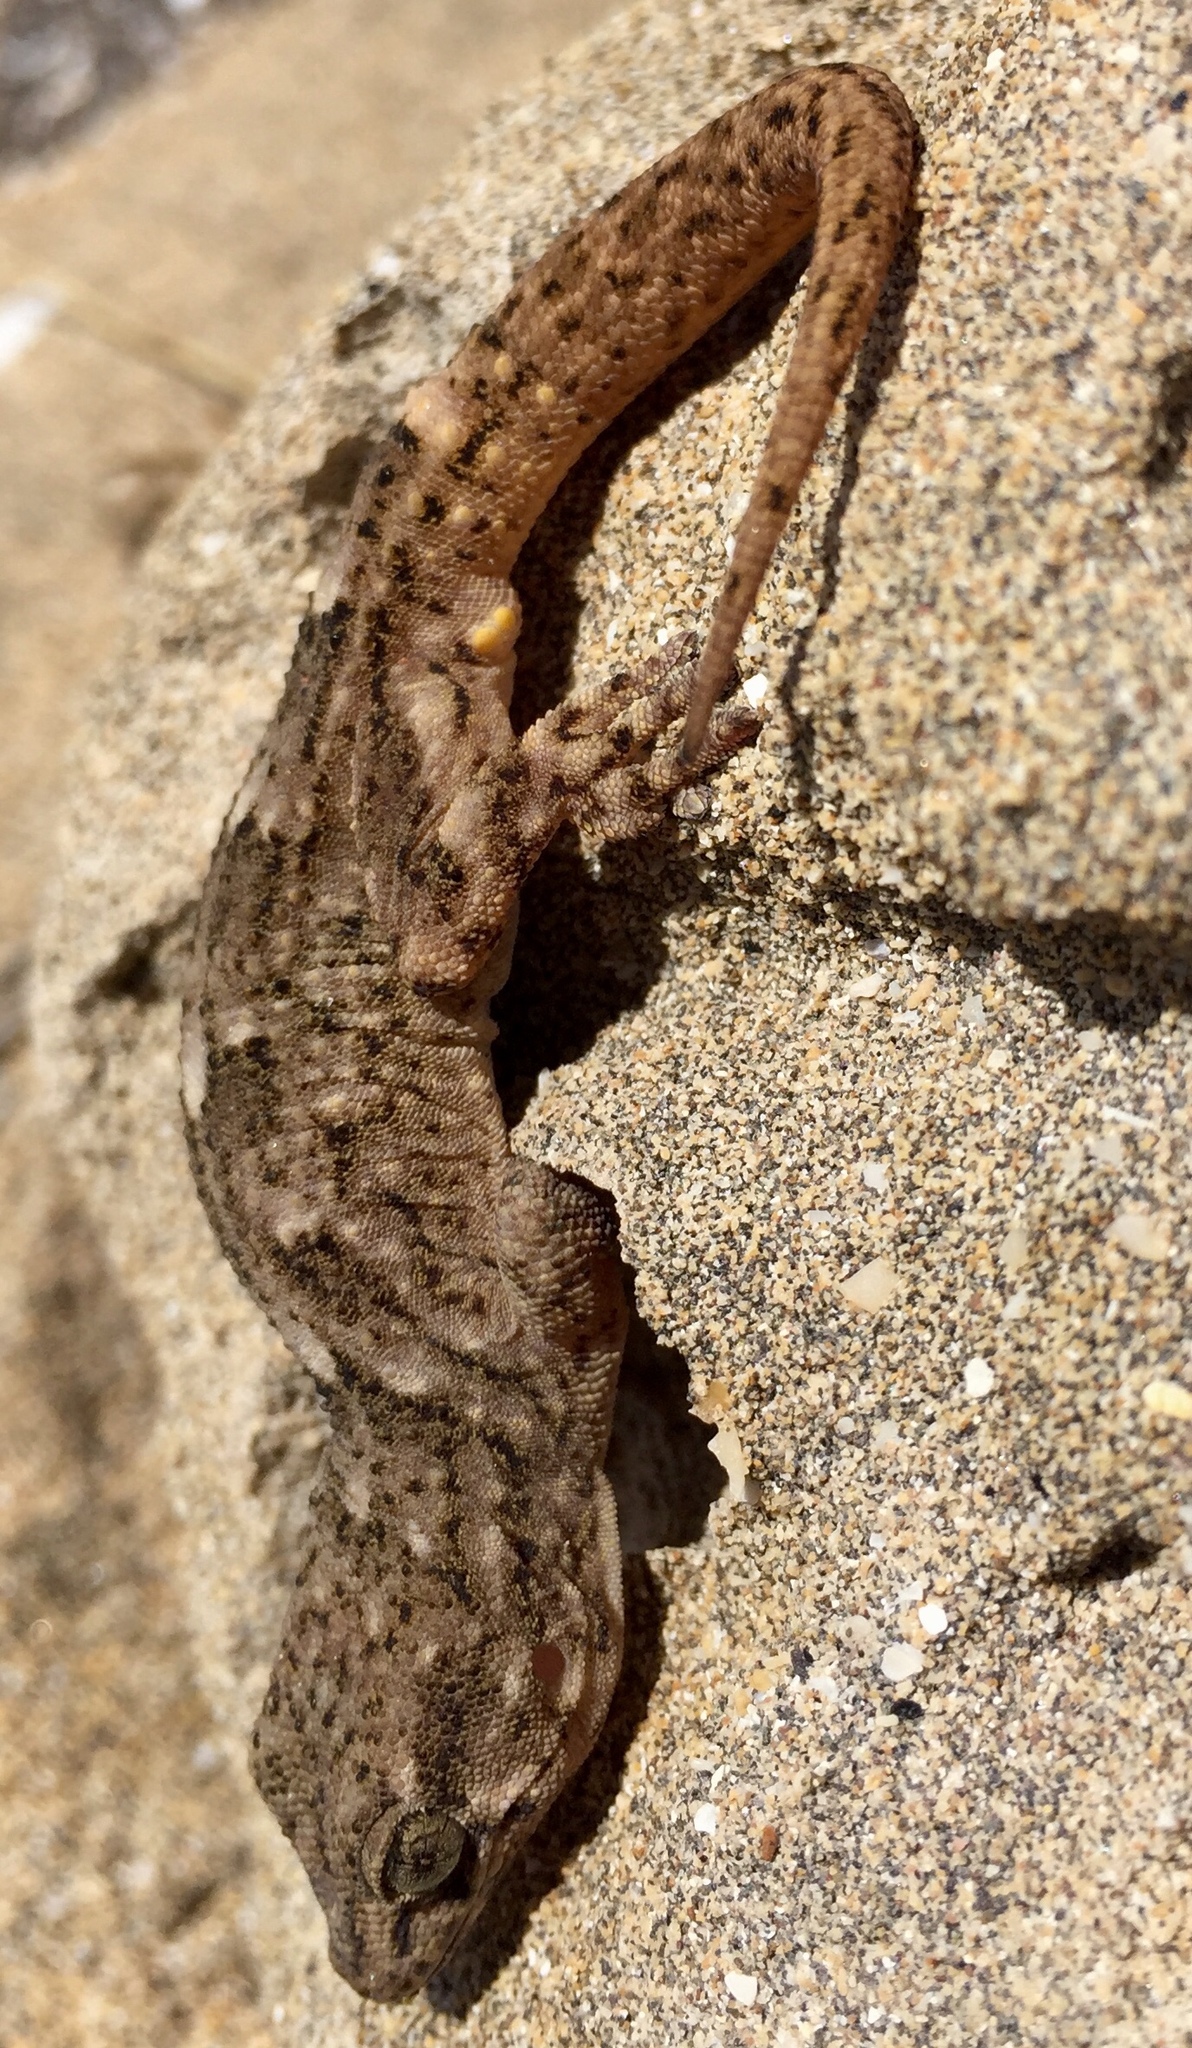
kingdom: Animalia
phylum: Chordata
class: Squamata
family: Phyllodactylidae
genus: Tarentola
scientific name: Tarentola boettgeri
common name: Boettger's wall gecko
